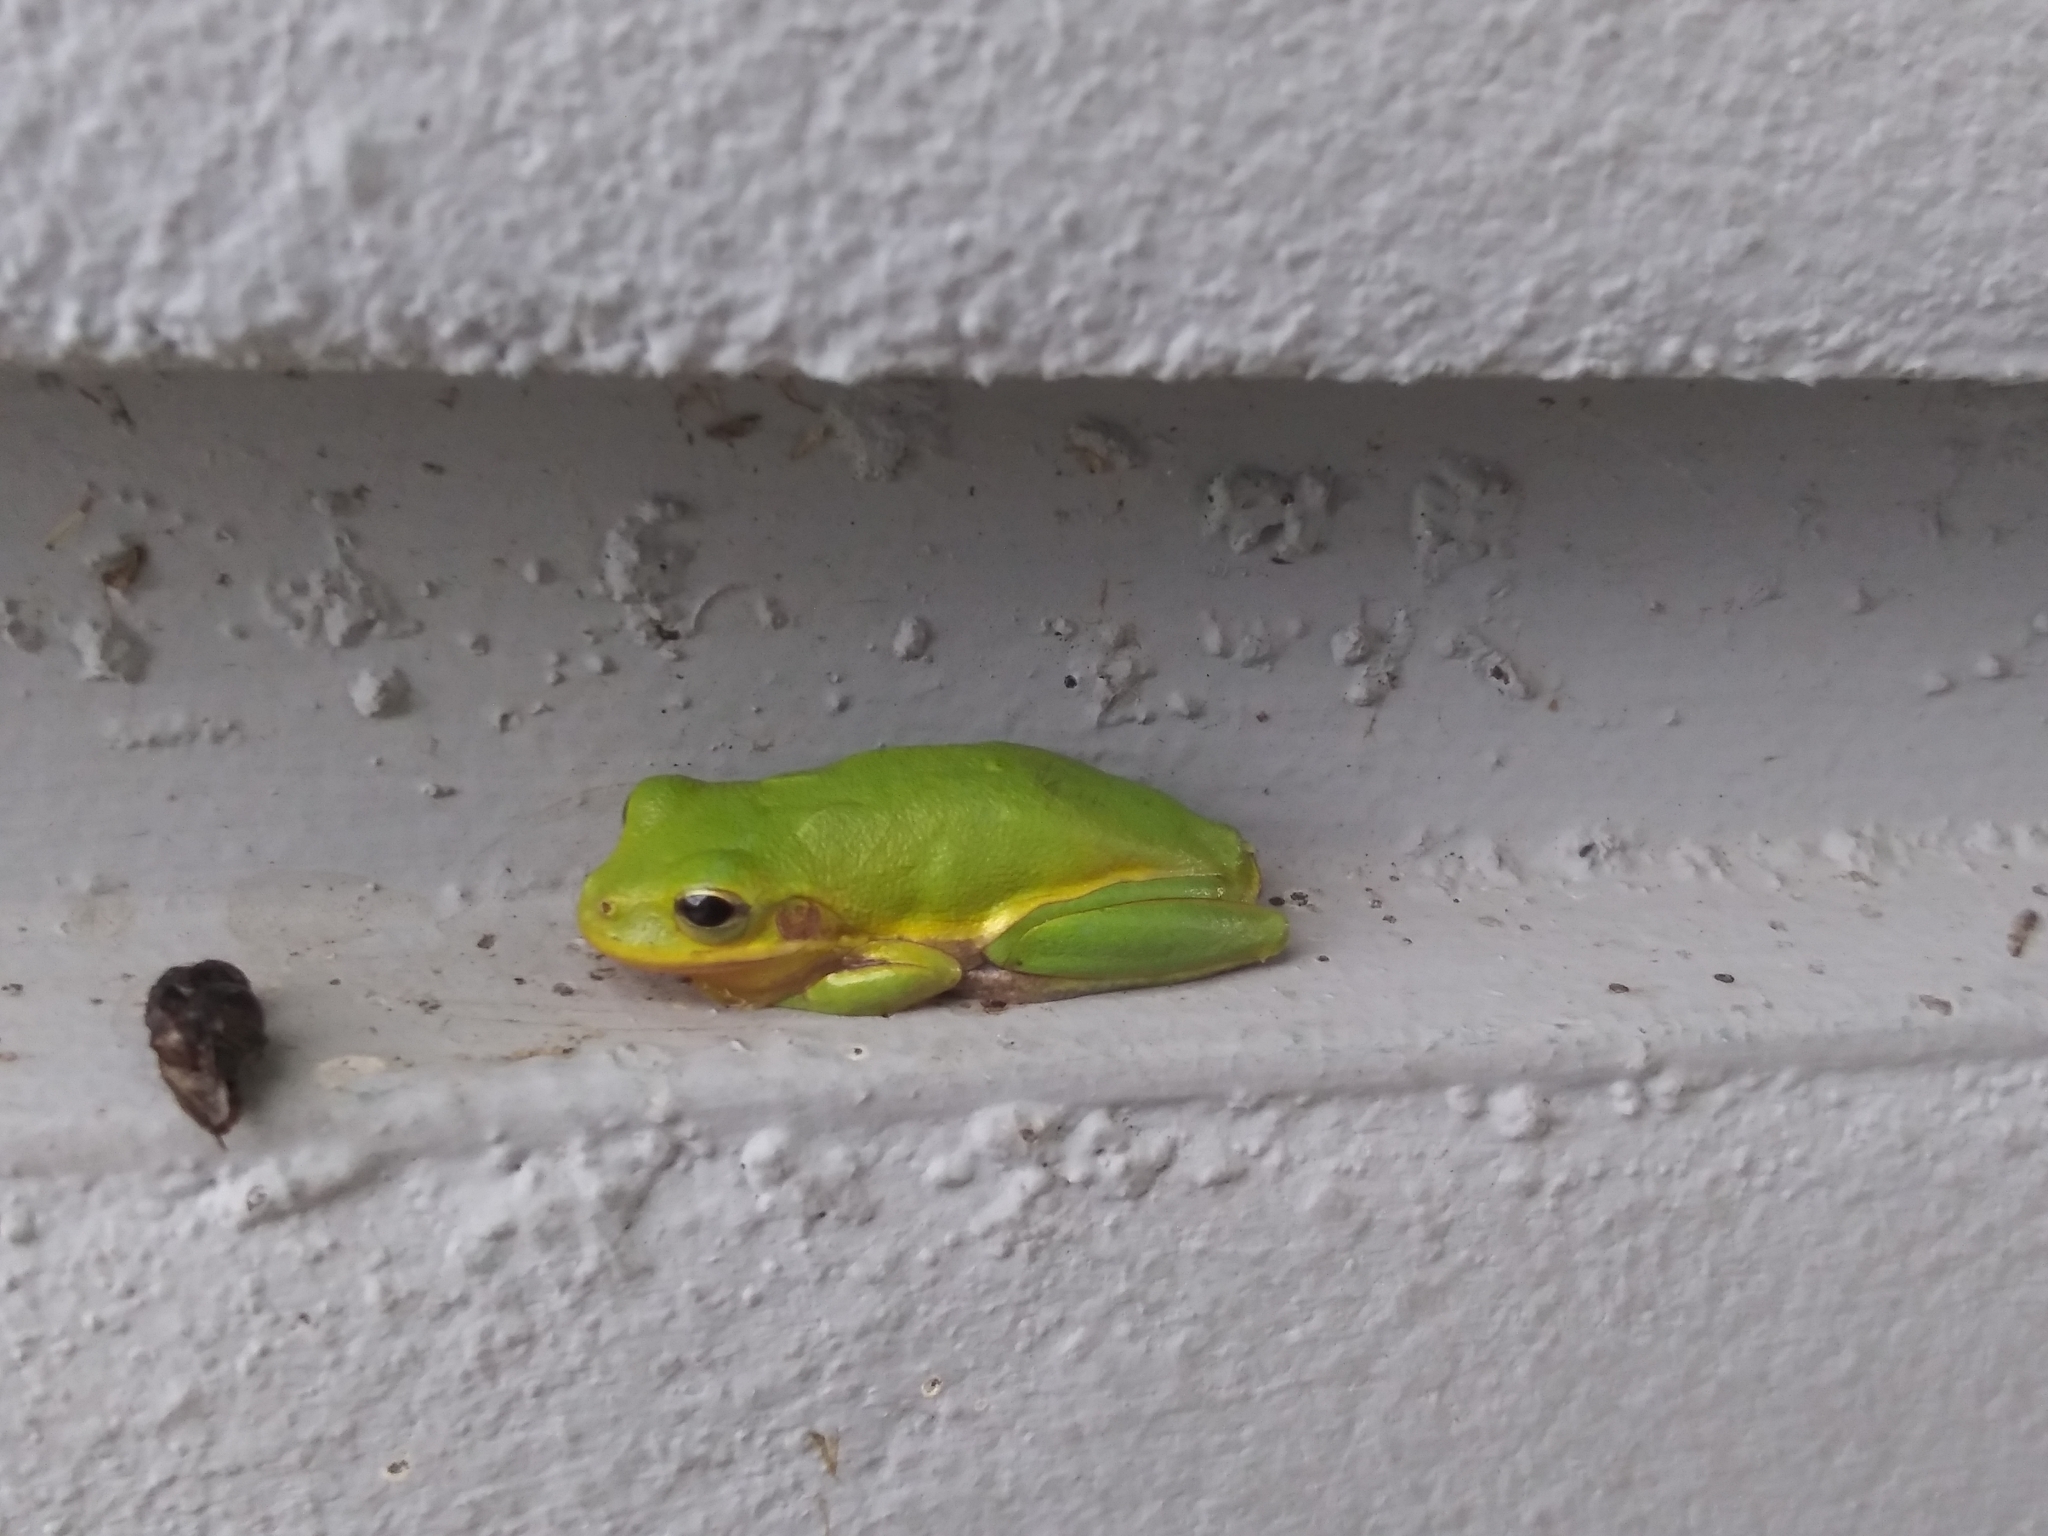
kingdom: Animalia
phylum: Chordata
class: Amphibia
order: Anura
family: Hylidae
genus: Dryophytes
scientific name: Dryophytes squirellus
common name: Squirrel treefrog
